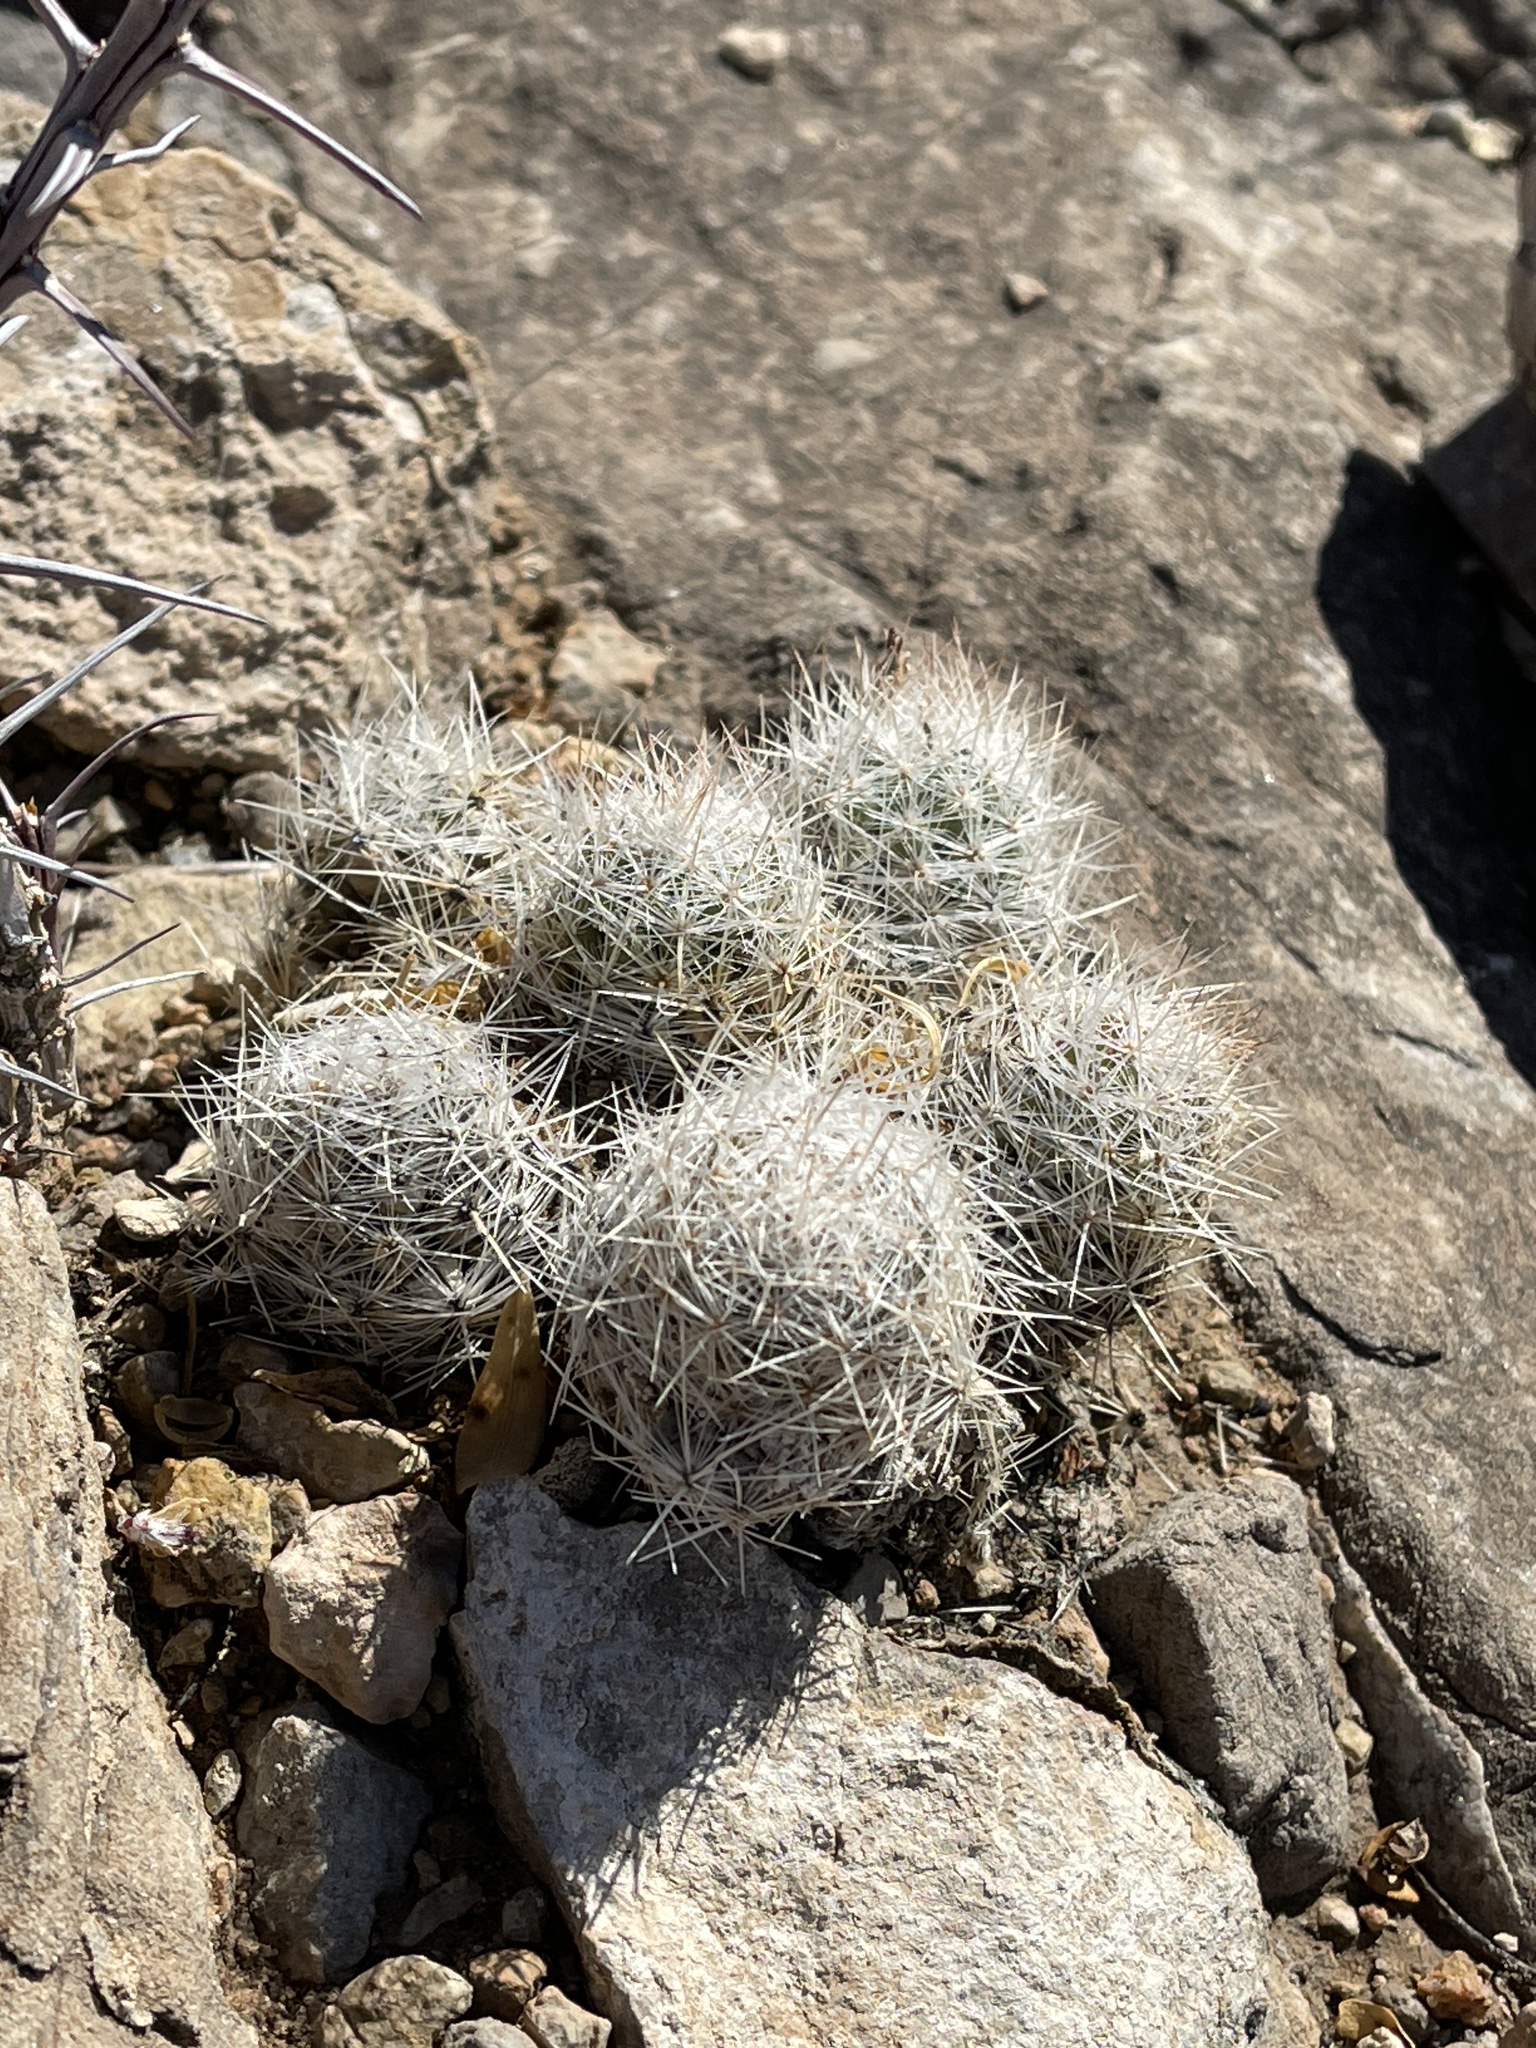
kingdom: Plantae
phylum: Tracheophyta
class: Magnoliopsida
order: Caryophyllales
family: Cactaceae
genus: Pelecyphora
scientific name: Pelecyphora sneedii
